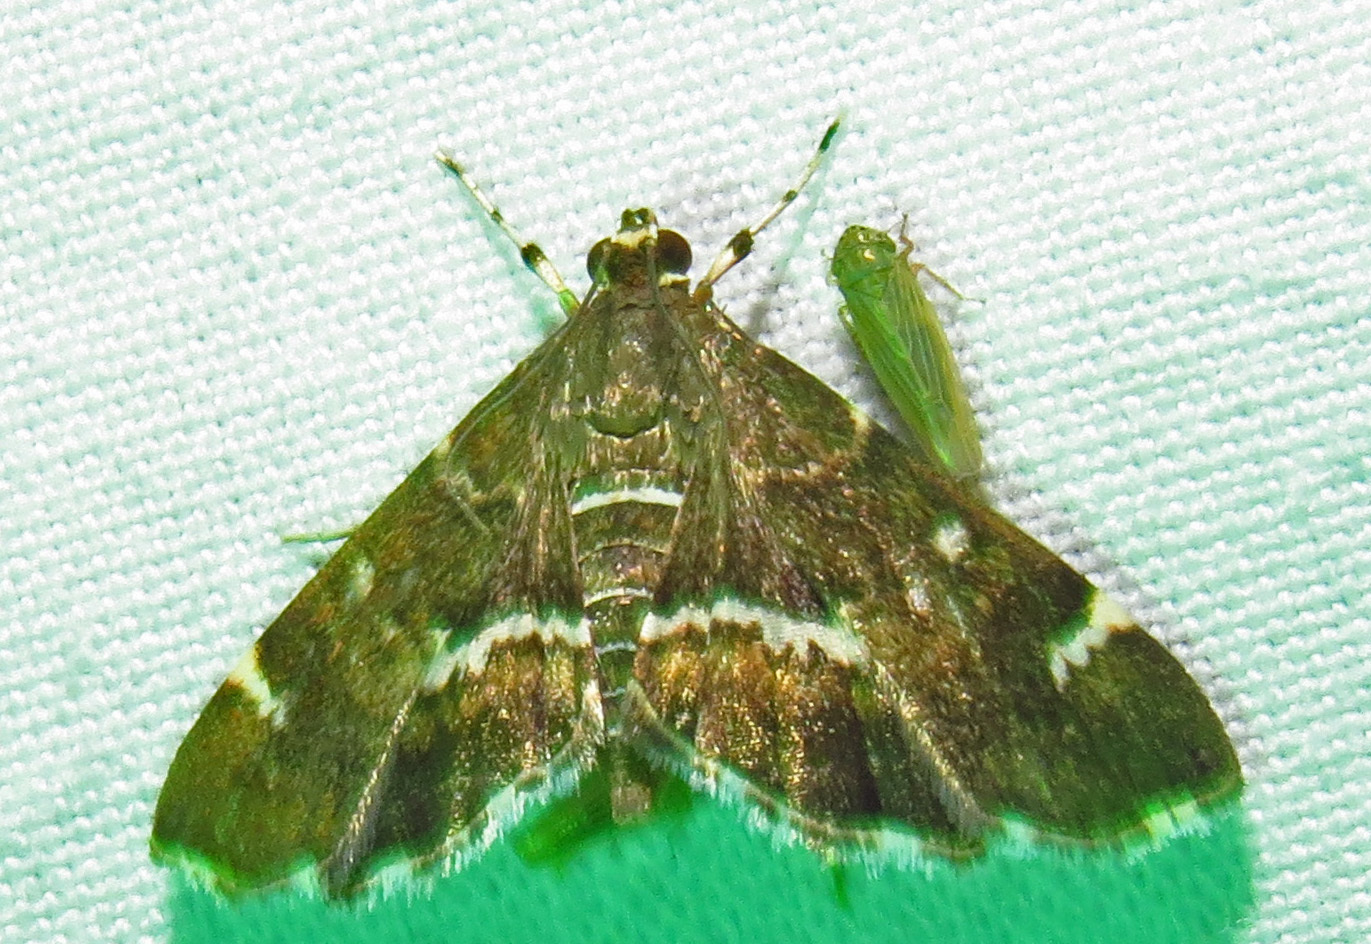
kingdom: Animalia
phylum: Arthropoda
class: Insecta
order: Lepidoptera
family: Crambidae
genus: Hymenia
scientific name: Hymenia perspectalis
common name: Spotted beet webworm
